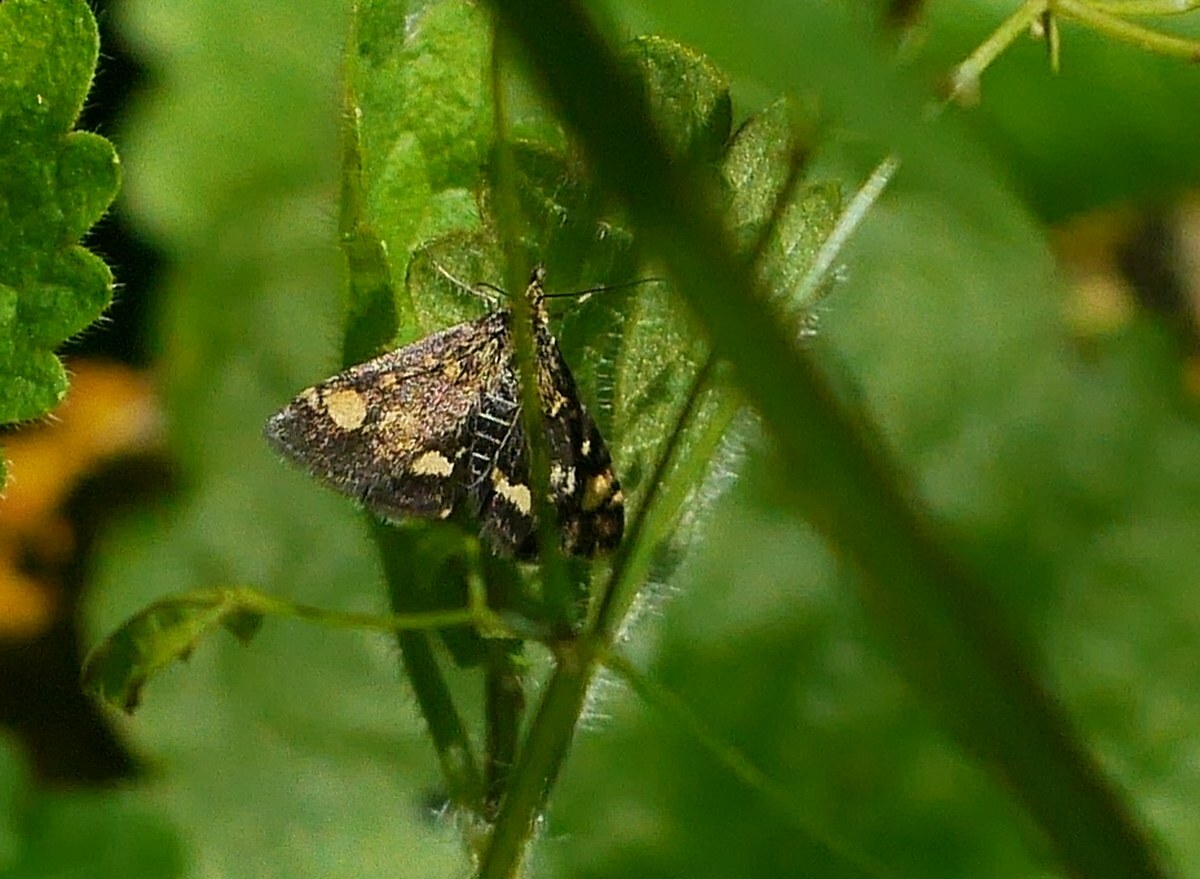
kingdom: Animalia
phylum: Arthropoda
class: Insecta
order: Lepidoptera
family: Crambidae
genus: Pyrausta
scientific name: Pyrausta aurata
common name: Small purple & gold
